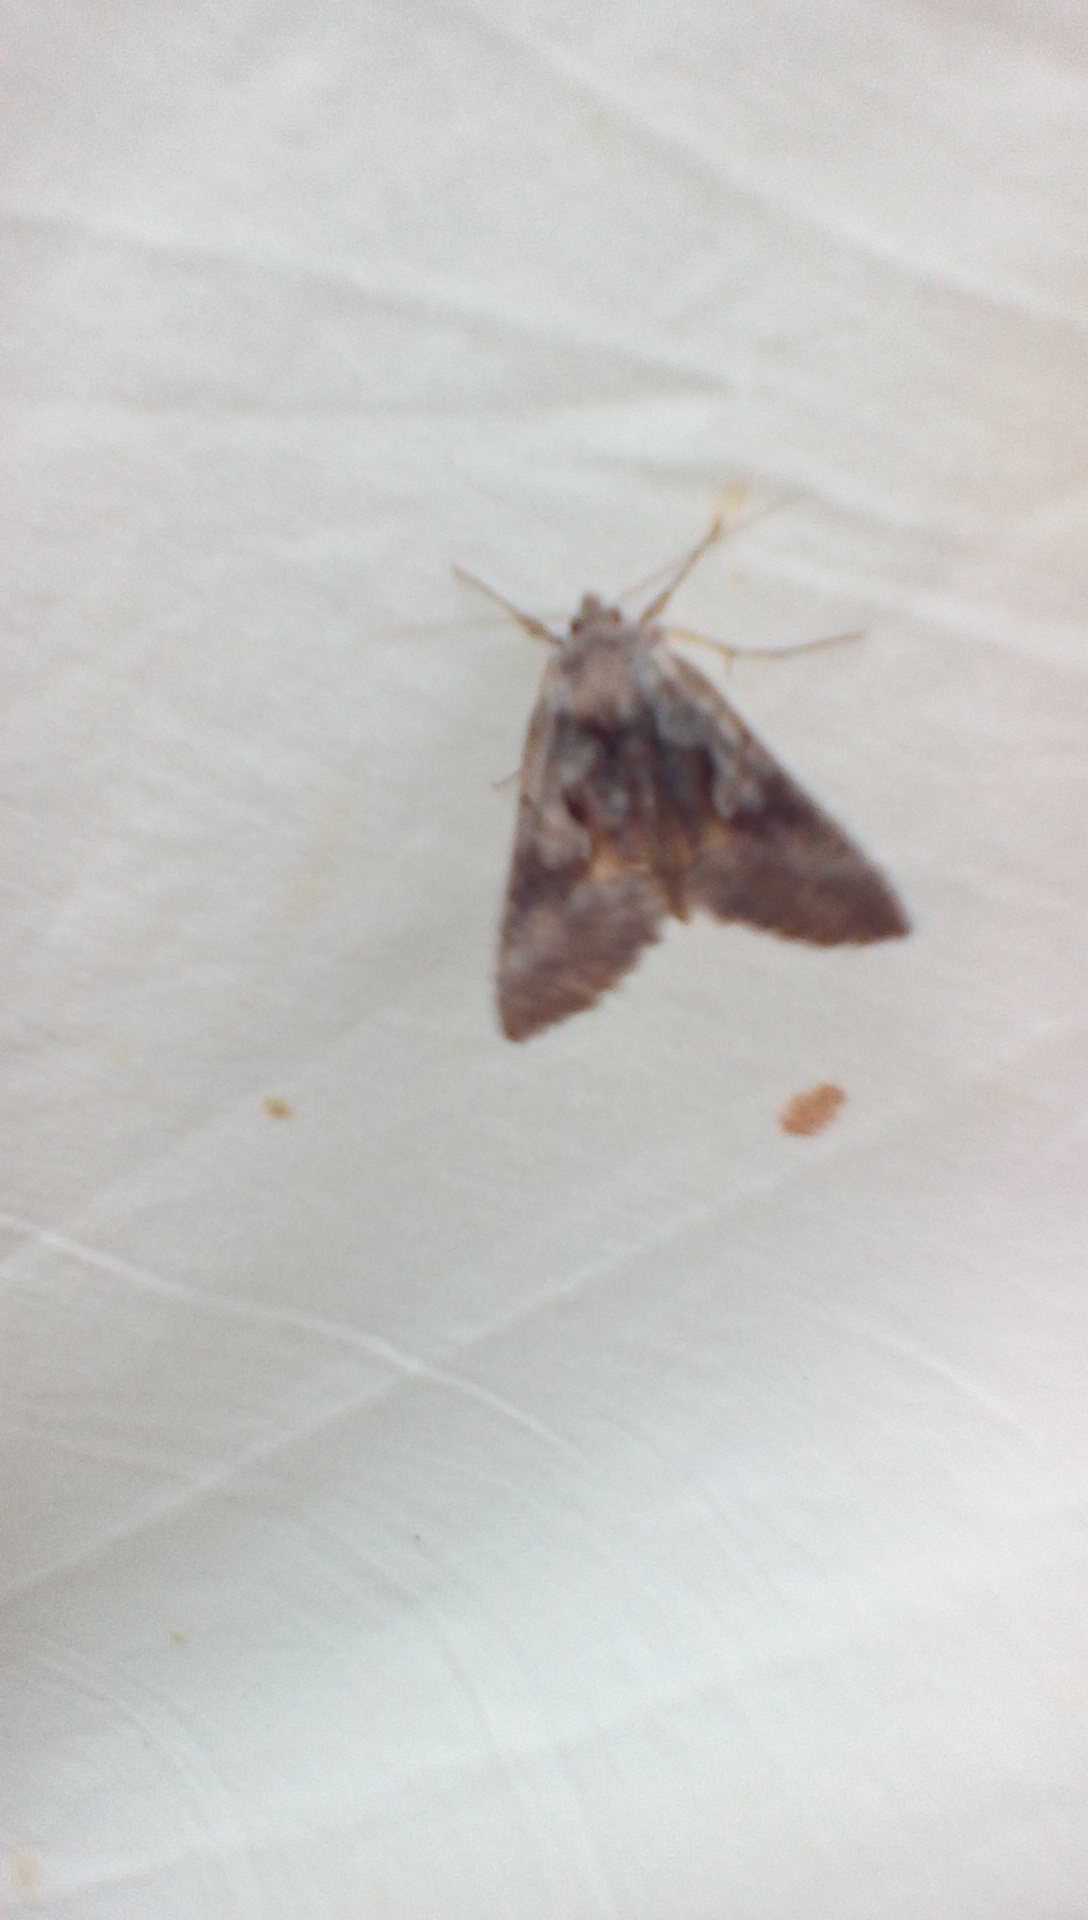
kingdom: Animalia
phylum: Arthropoda
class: Insecta
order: Lepidoptera
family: Noctuidae
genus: Syngrapha
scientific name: Syngrapha epigaea
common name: Epigaea looper moth
